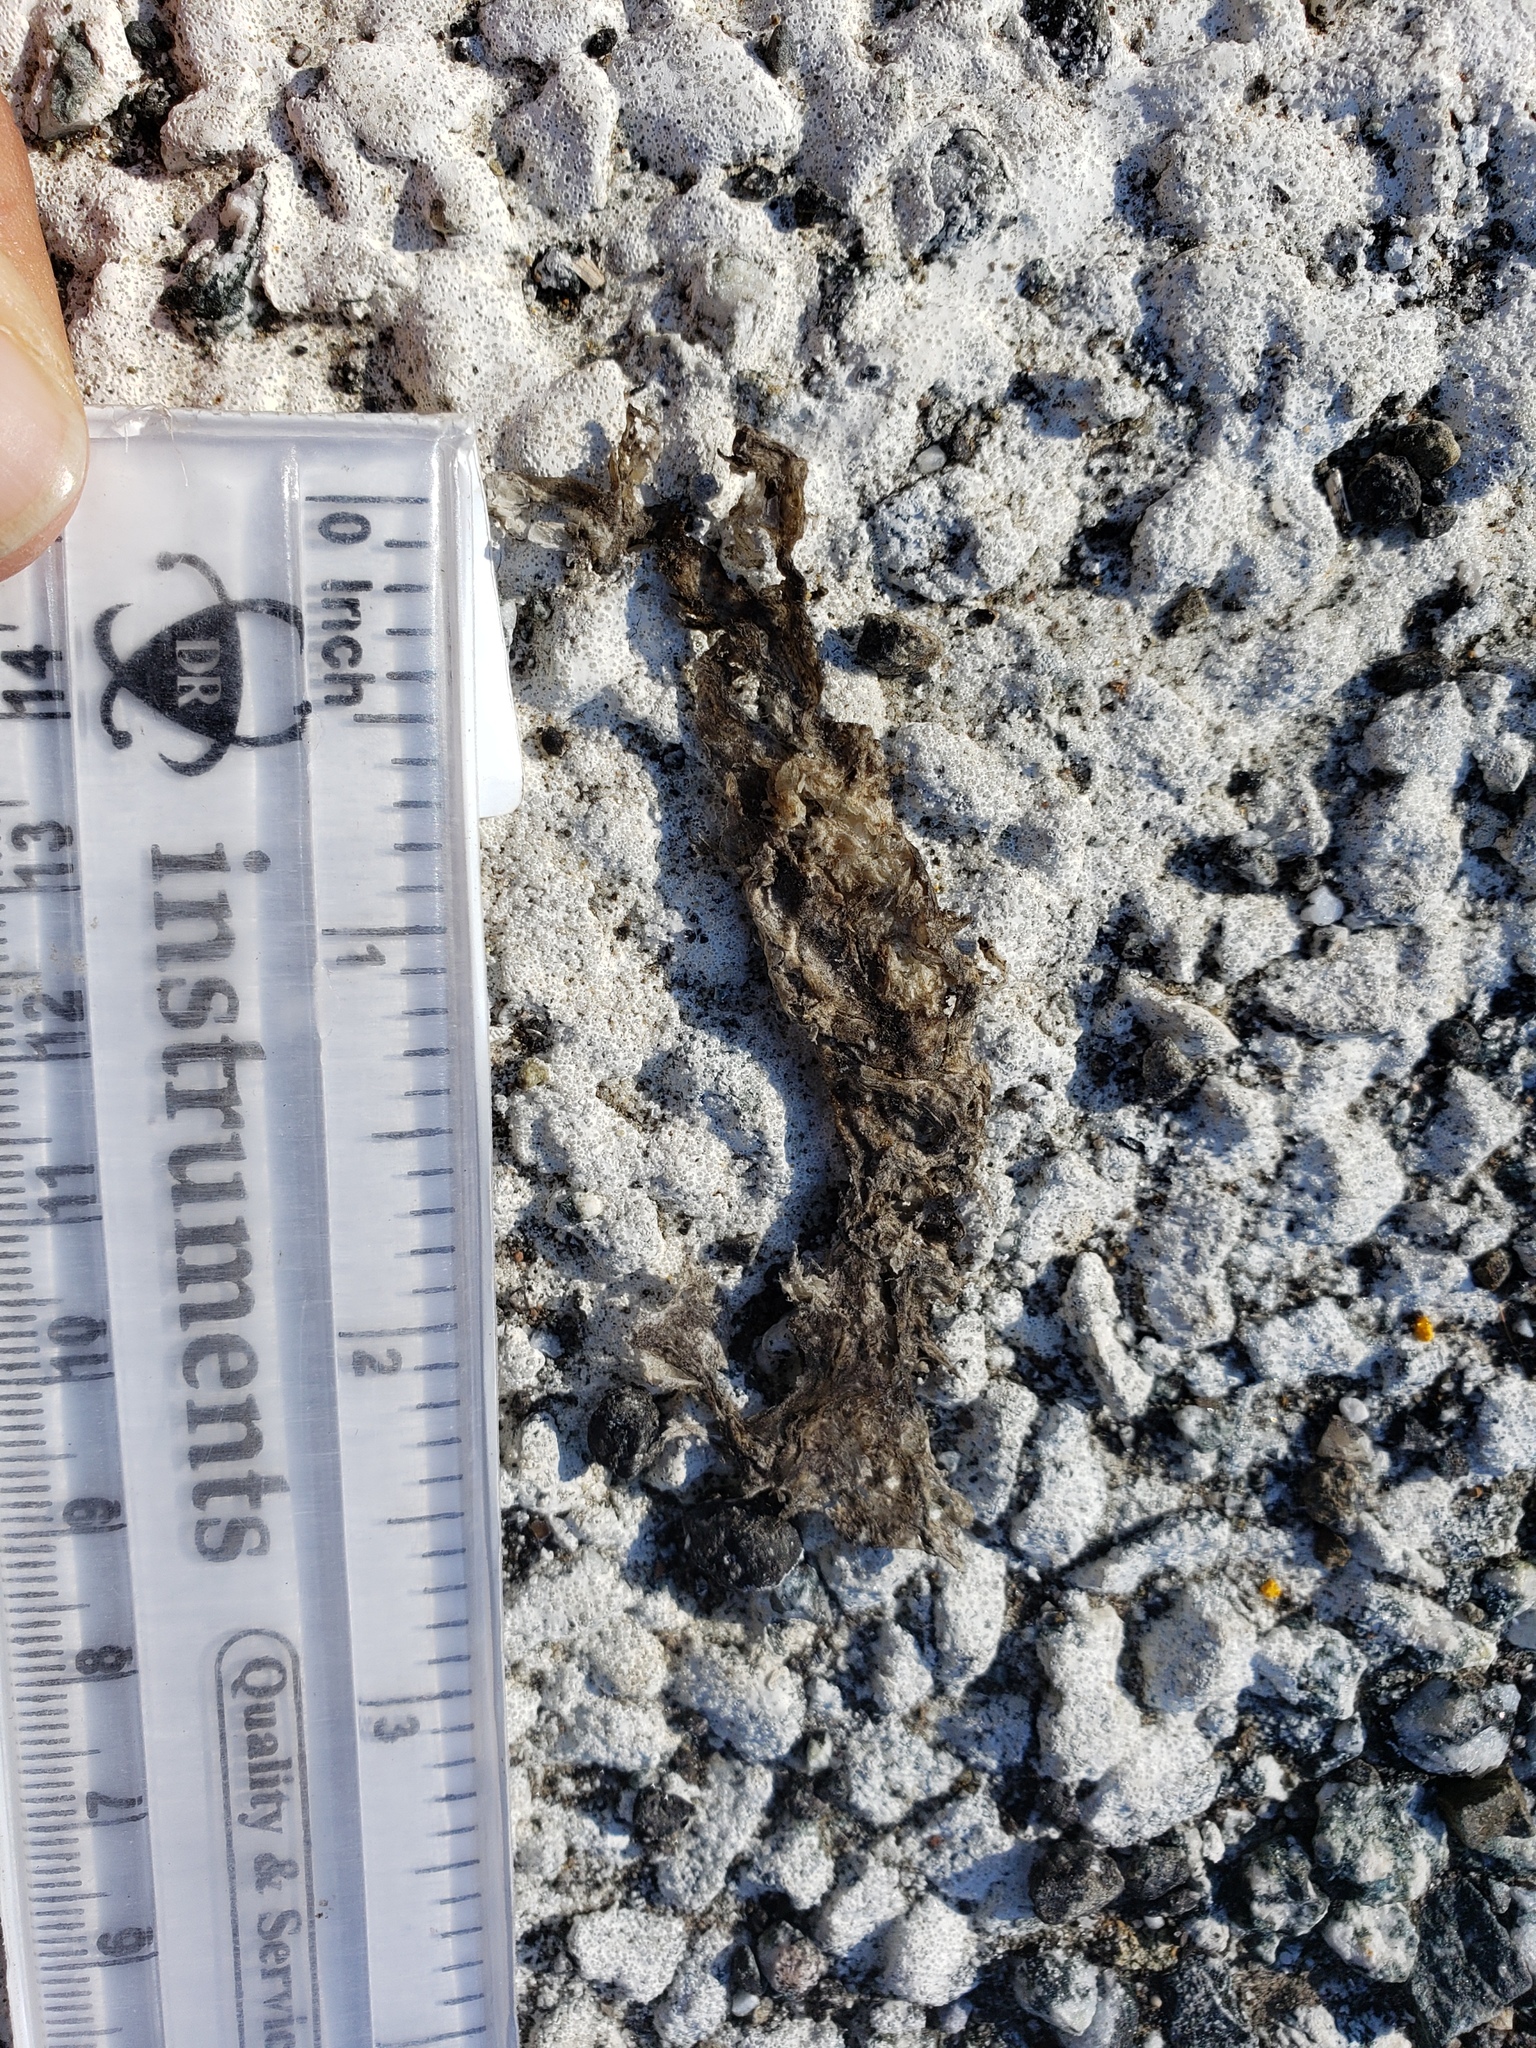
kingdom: Animalia
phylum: Chordata
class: Amphibia
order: Caudata
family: Salamandridae
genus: Taricha
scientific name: Taricha
